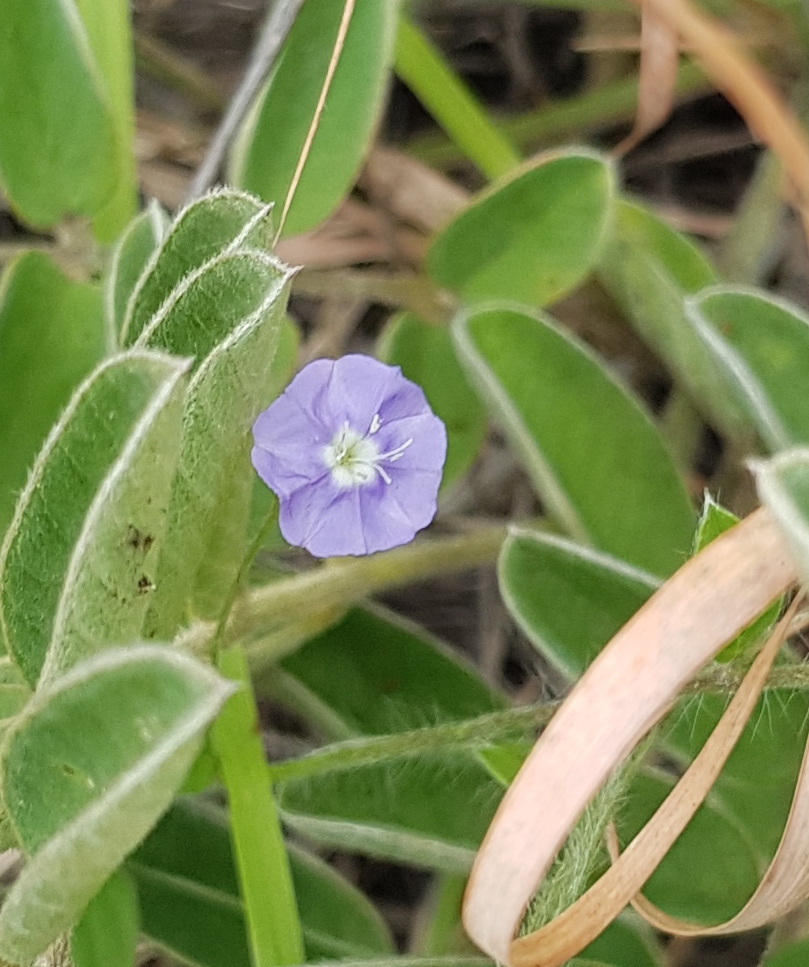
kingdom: Plantae
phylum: Tracheophyta
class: Magnoliopsida
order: Solanales
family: Convolvulaceae
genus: Evolvulus
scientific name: Evolvulus alsinoides
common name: Slender dwarf morning-glory
